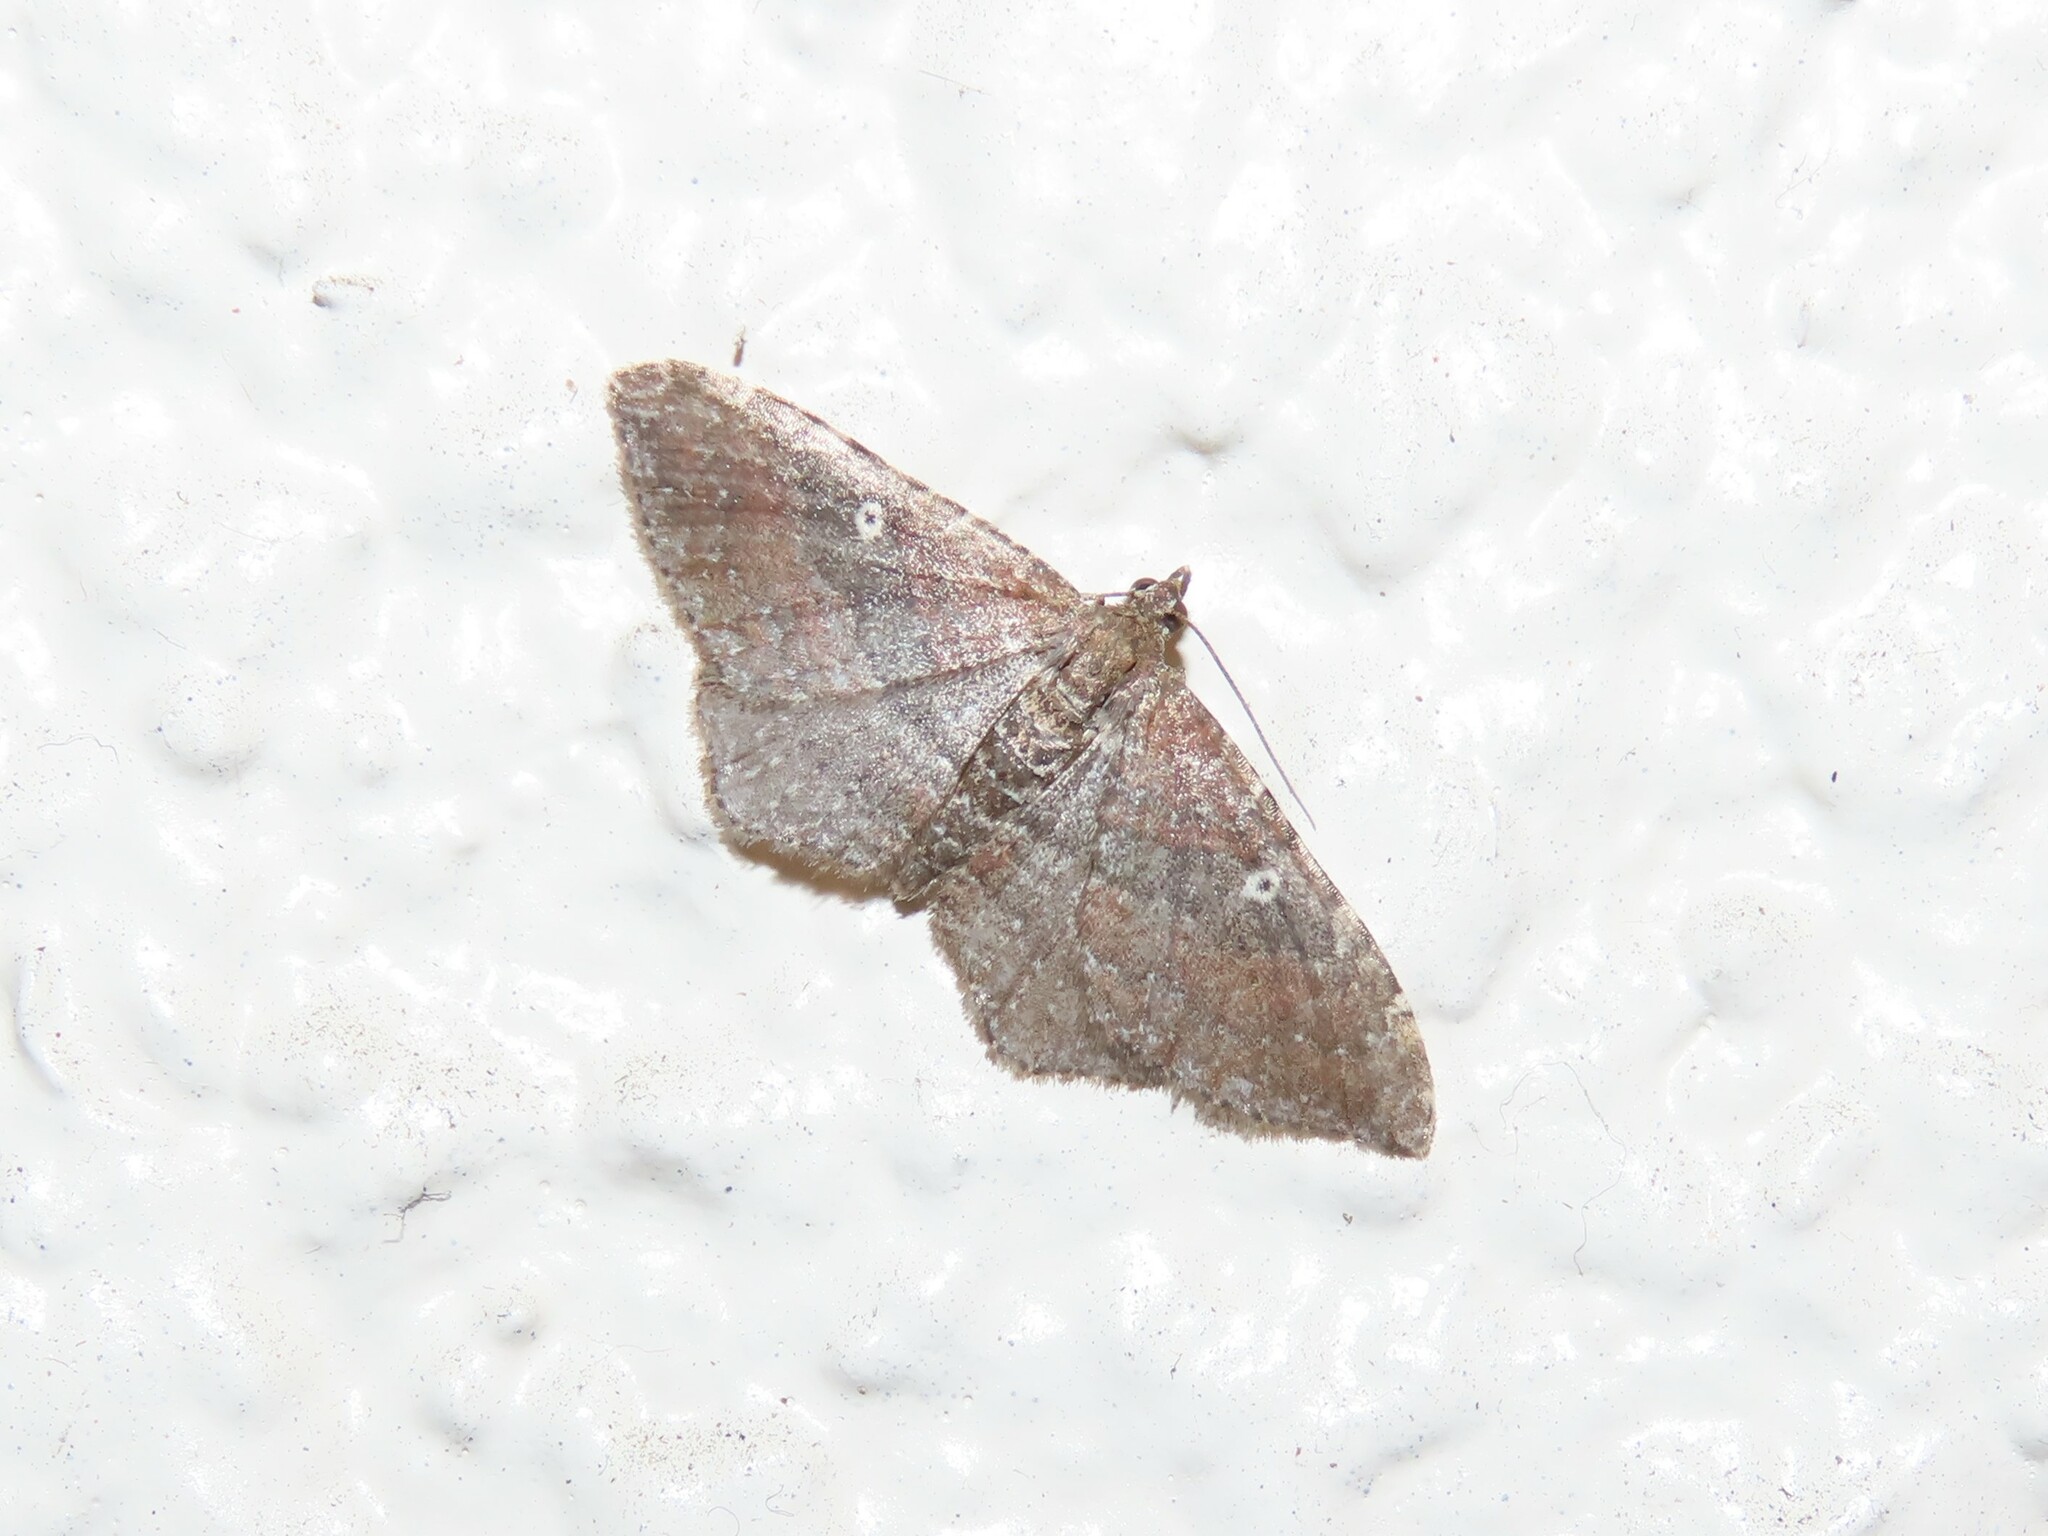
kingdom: Animalia
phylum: Arthropoda
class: Insecta
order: Lepidoptera
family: Geometridae
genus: Orthonama
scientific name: Orthonama obstipata
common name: The gem
